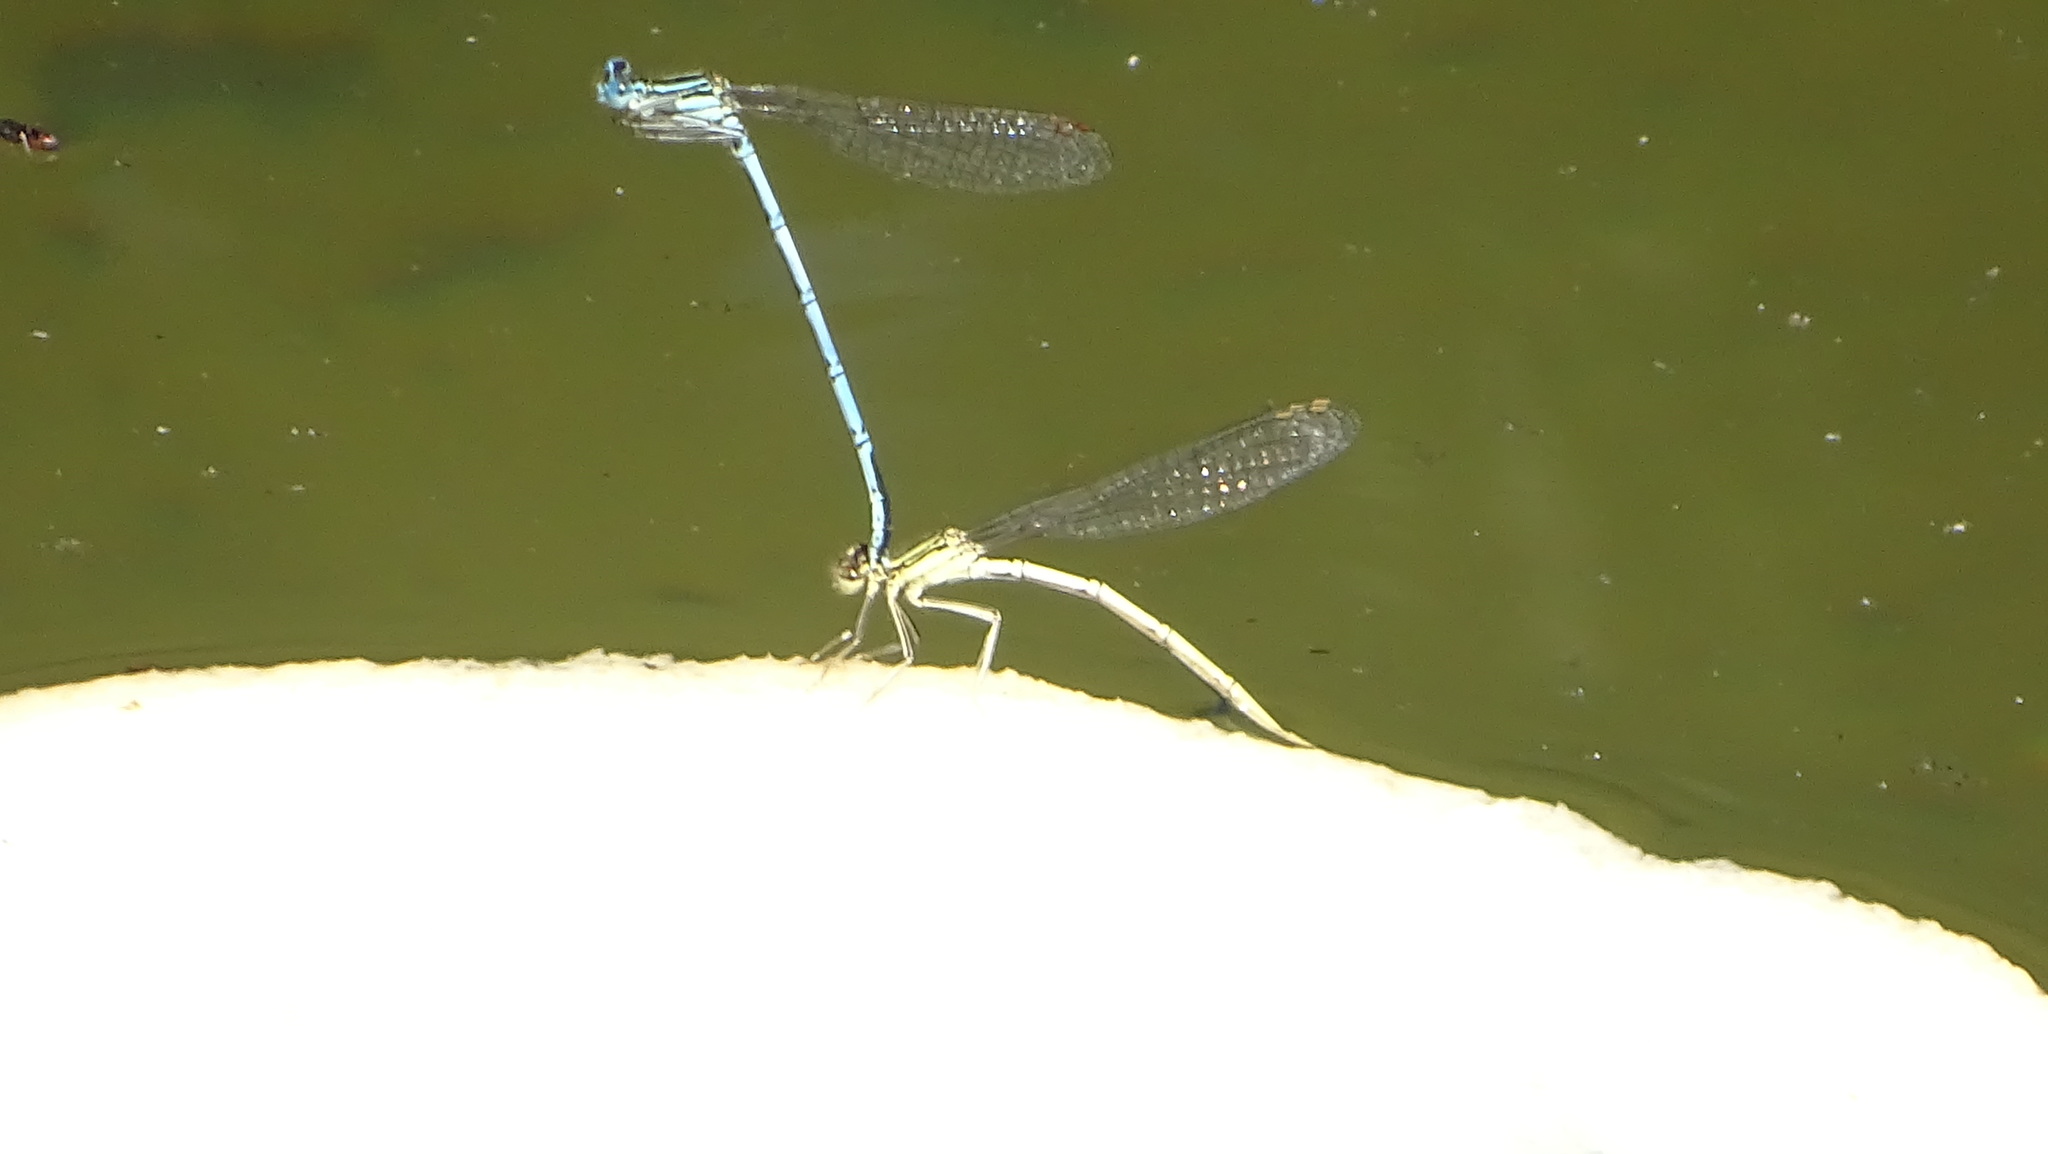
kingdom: Animalia
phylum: Arthropoda
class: Insecta
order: Odonata
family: Platycnemididae
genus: Platycnemis
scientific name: Platycnemis pennipes
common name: White-legged damselfly
